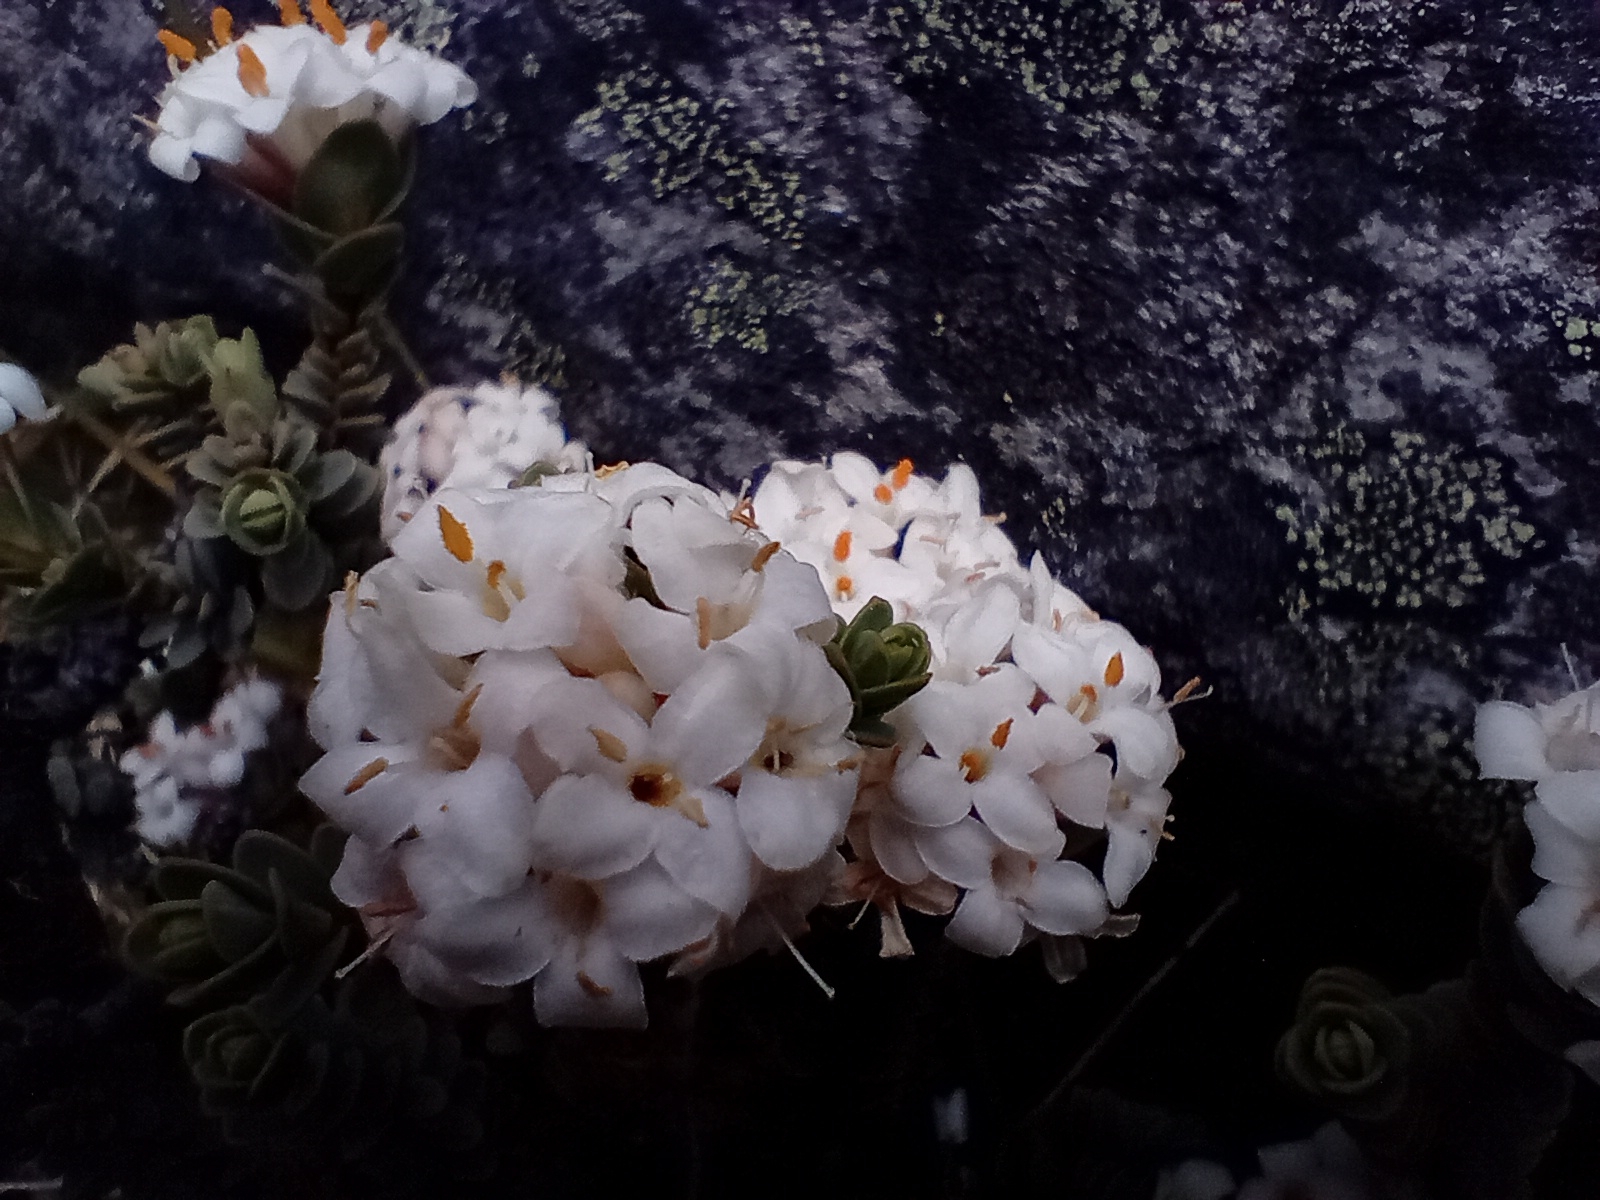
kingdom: Plantae
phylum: Tracheophyta
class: Magnoliopsida
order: Malvales
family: Thymelaeaceae
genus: Pimelea
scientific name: Pimelea traversii
